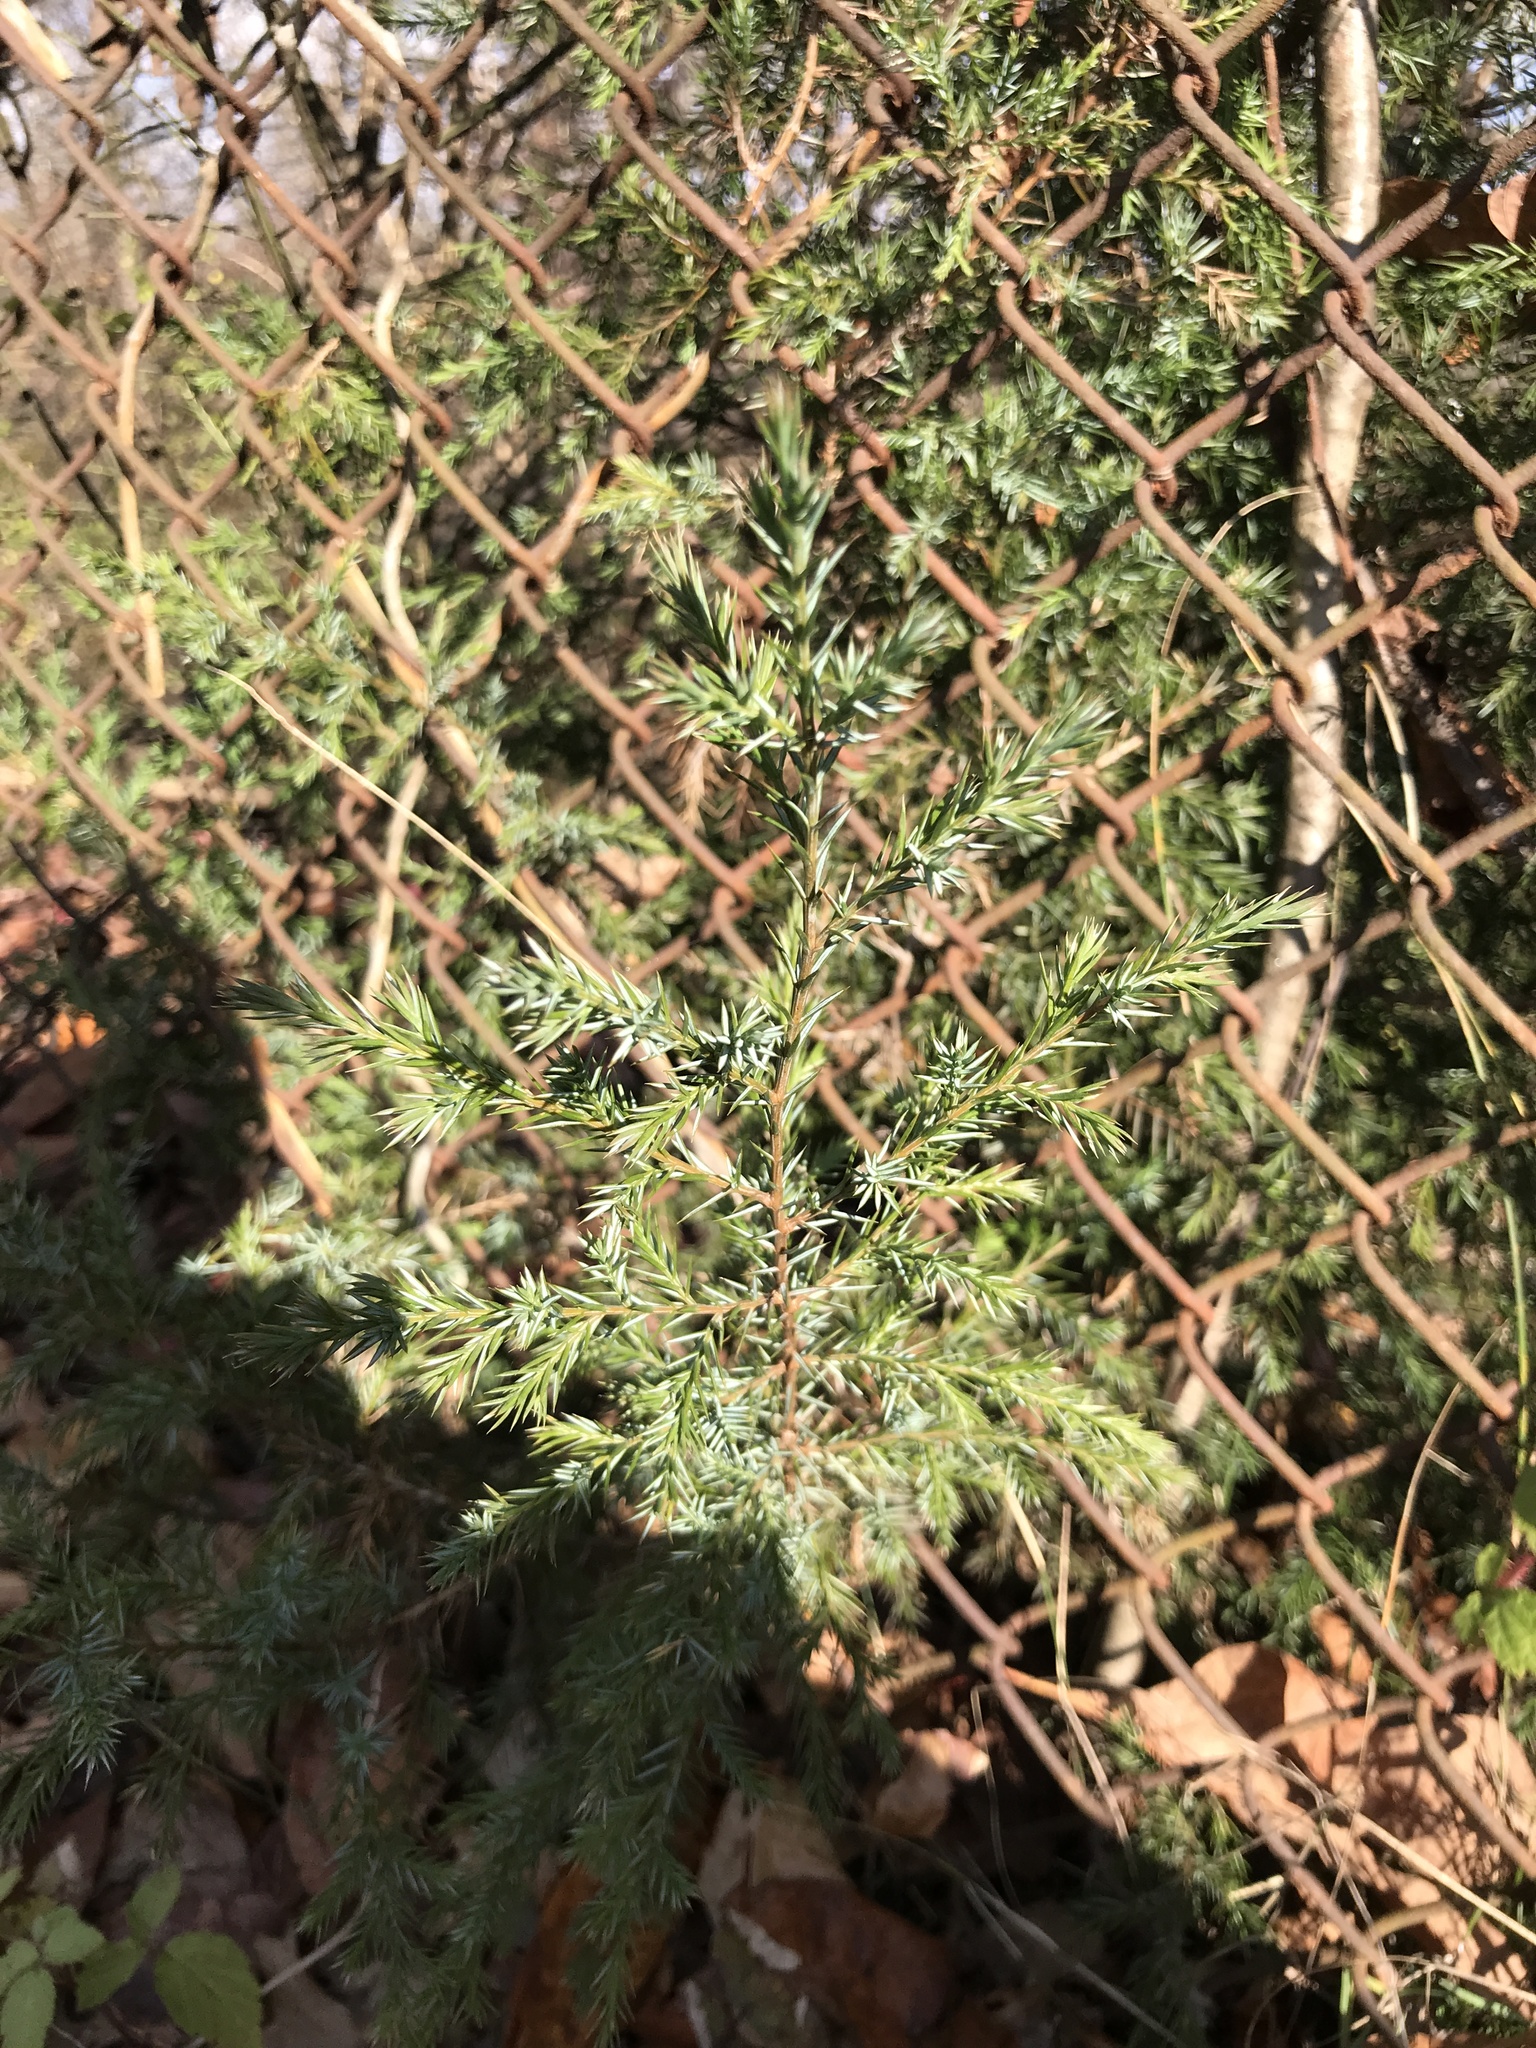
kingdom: Plantae
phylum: Tracheophyta
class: Pinopsida
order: Pinales
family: Cupressaceae
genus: Juniperus
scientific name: Juniperus virginiana
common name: Red juniper
